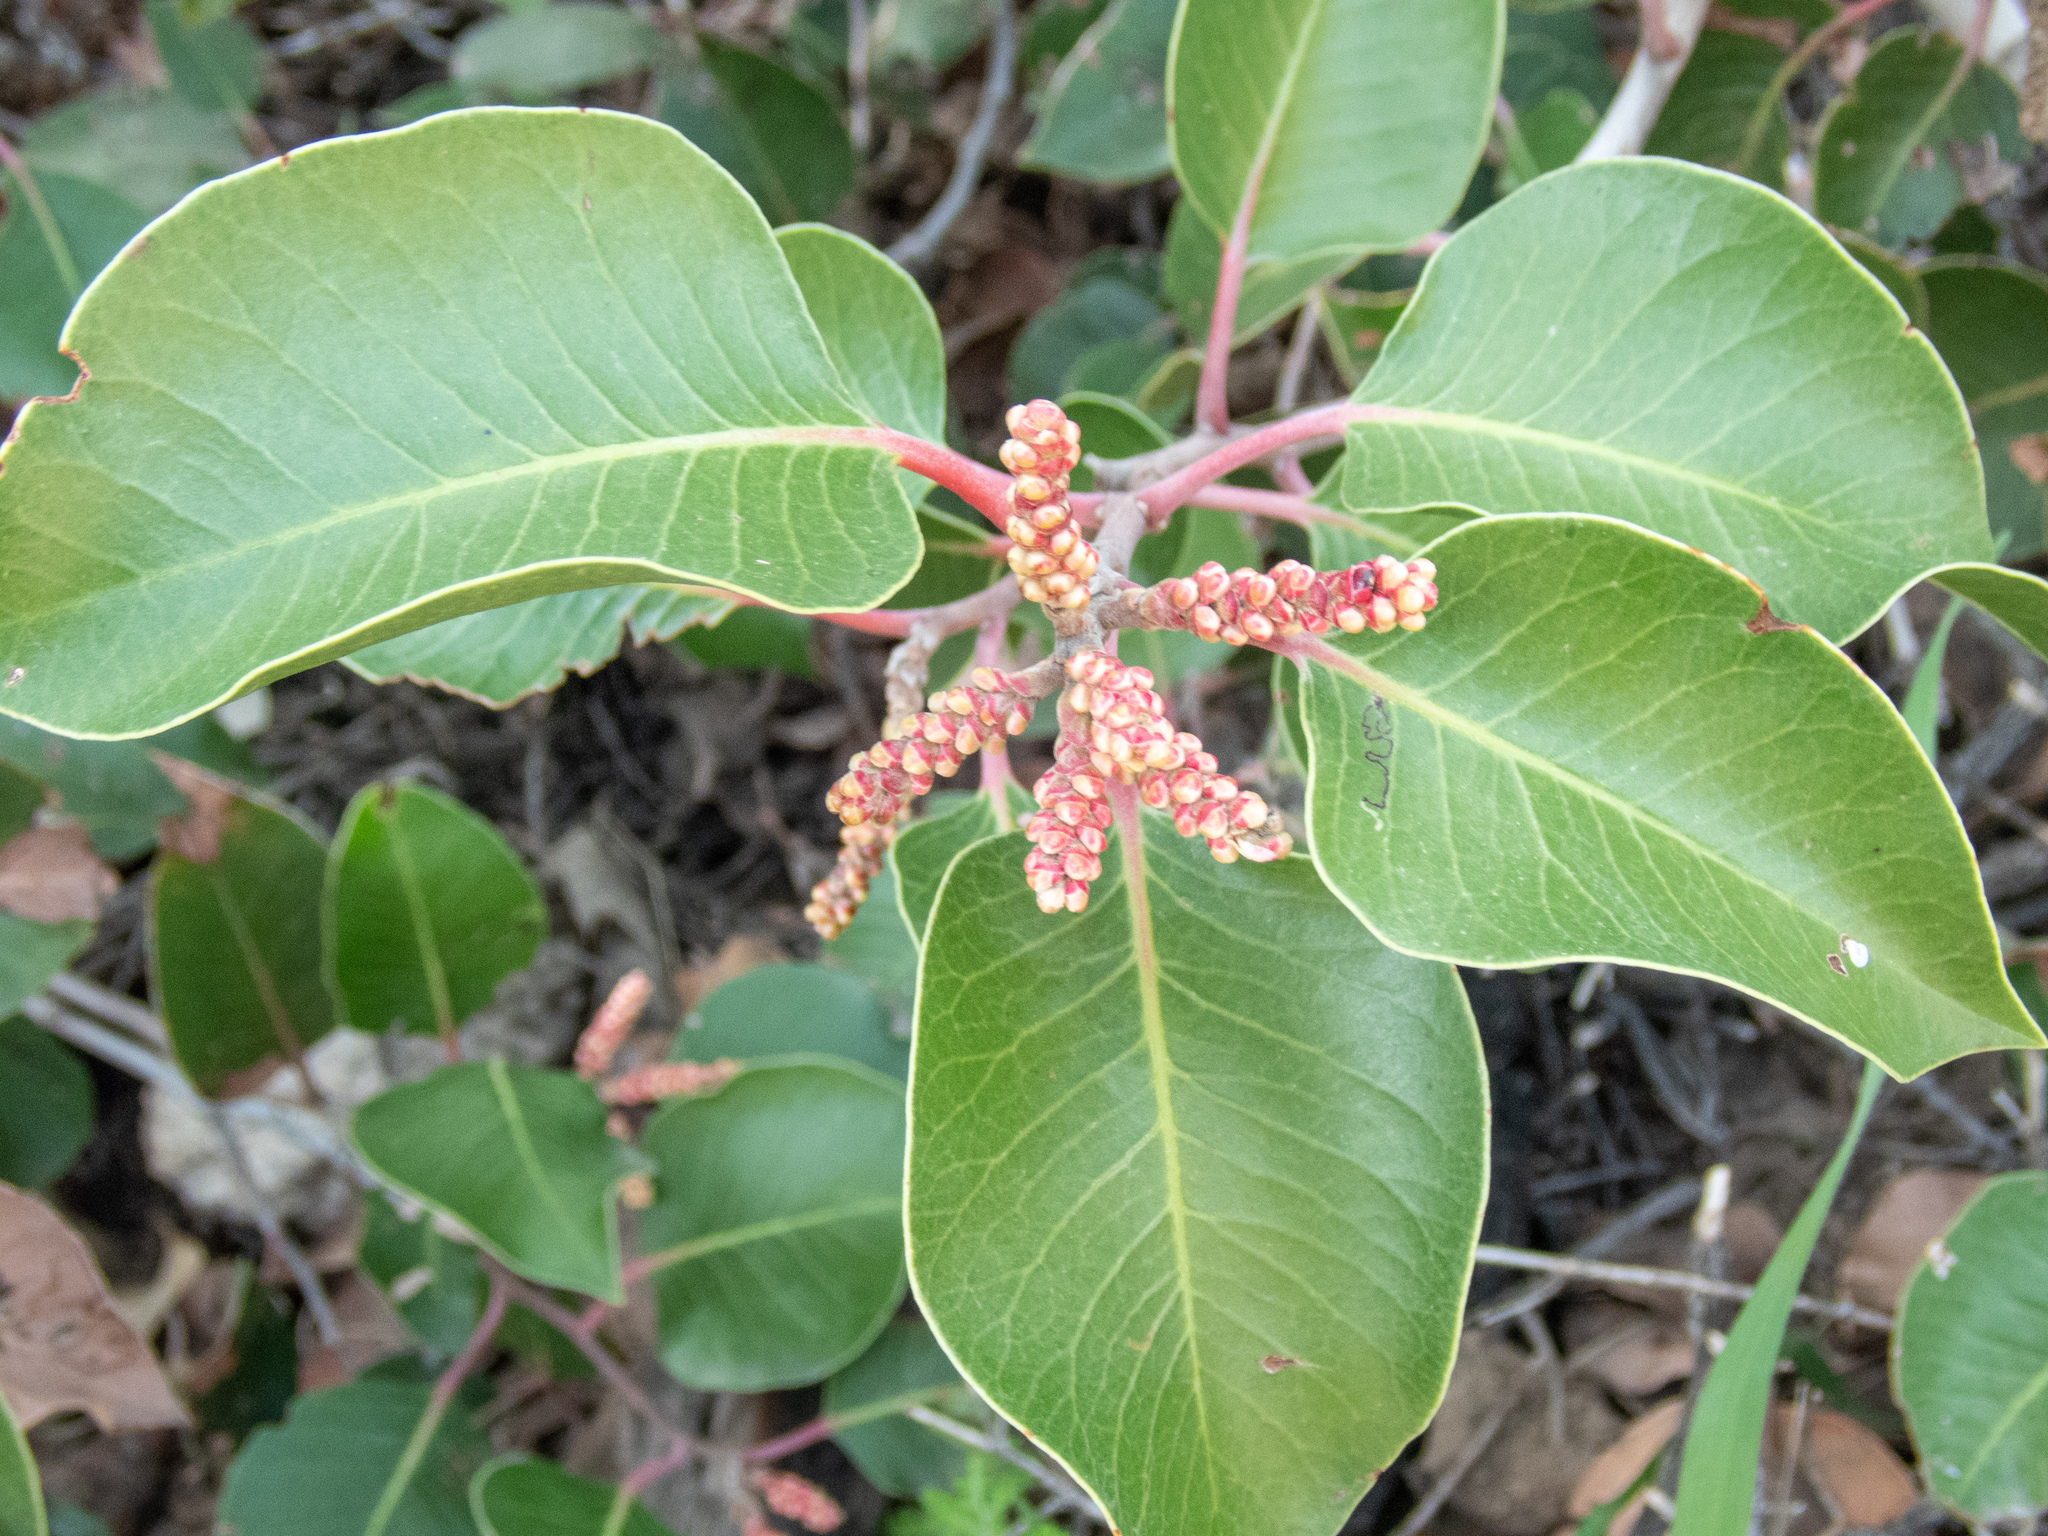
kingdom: Plantae
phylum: Tracheophyta
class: Magnoliopsida
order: Sapindales
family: Anacardiaceae
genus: Rhus
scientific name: Rhus ovata
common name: Sugar sumac
